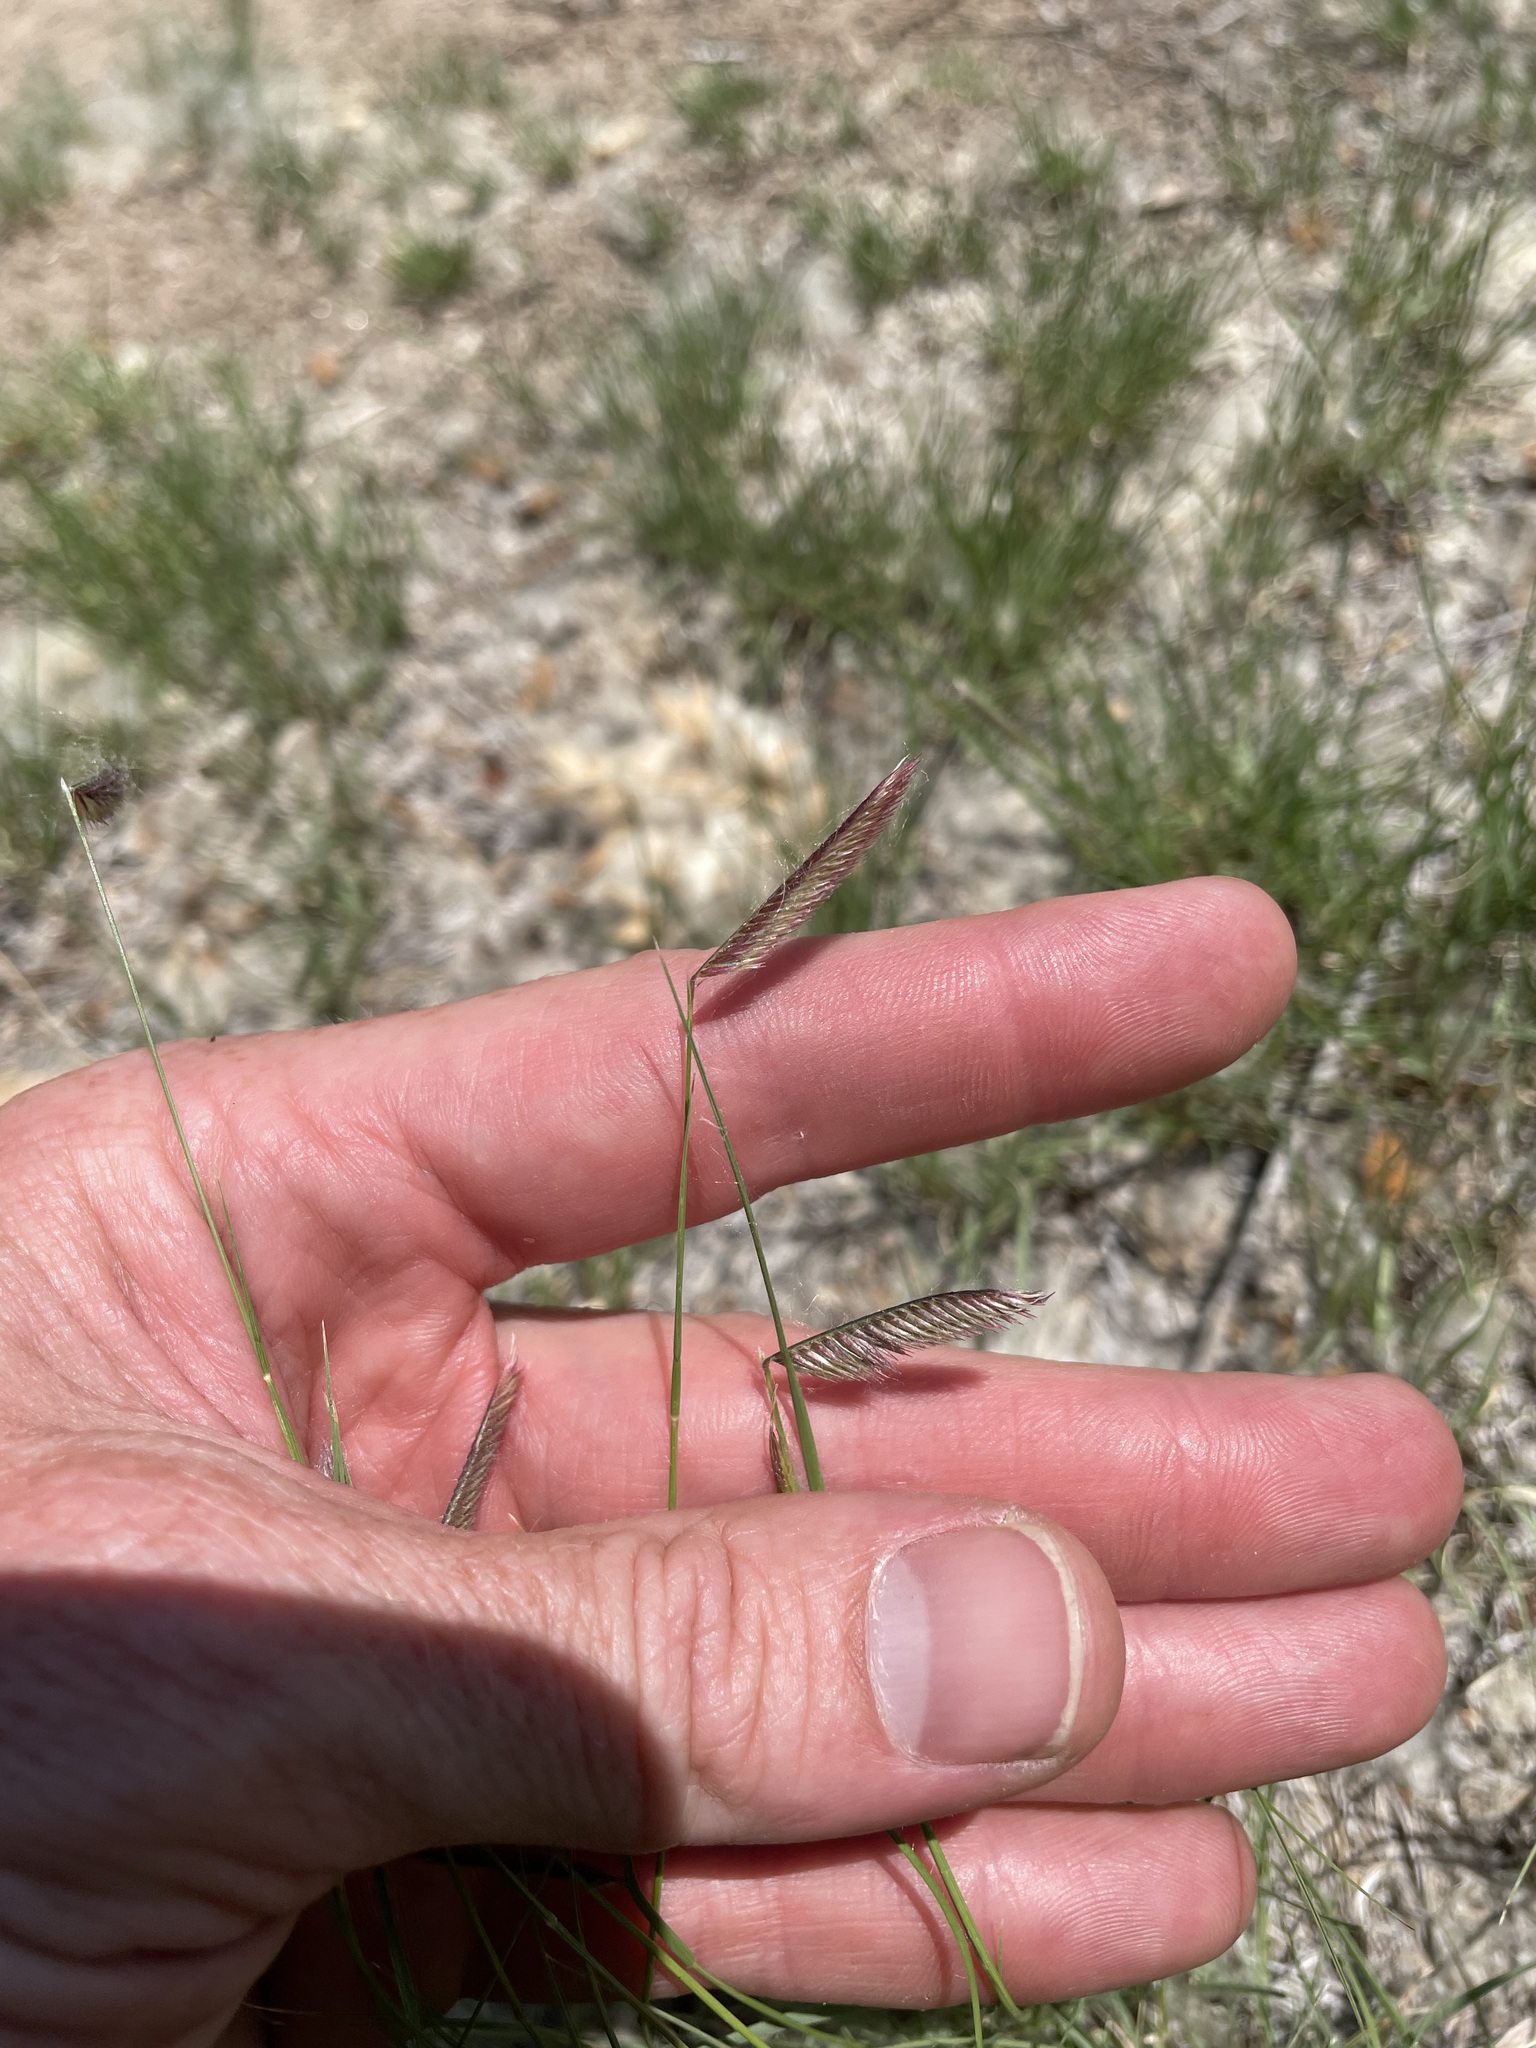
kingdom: Plantae
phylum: Tracheophyta
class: Liliopsida
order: Poales
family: Poaceae
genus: Bouteloua
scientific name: Bouteloua gracilis
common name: Blue grama
